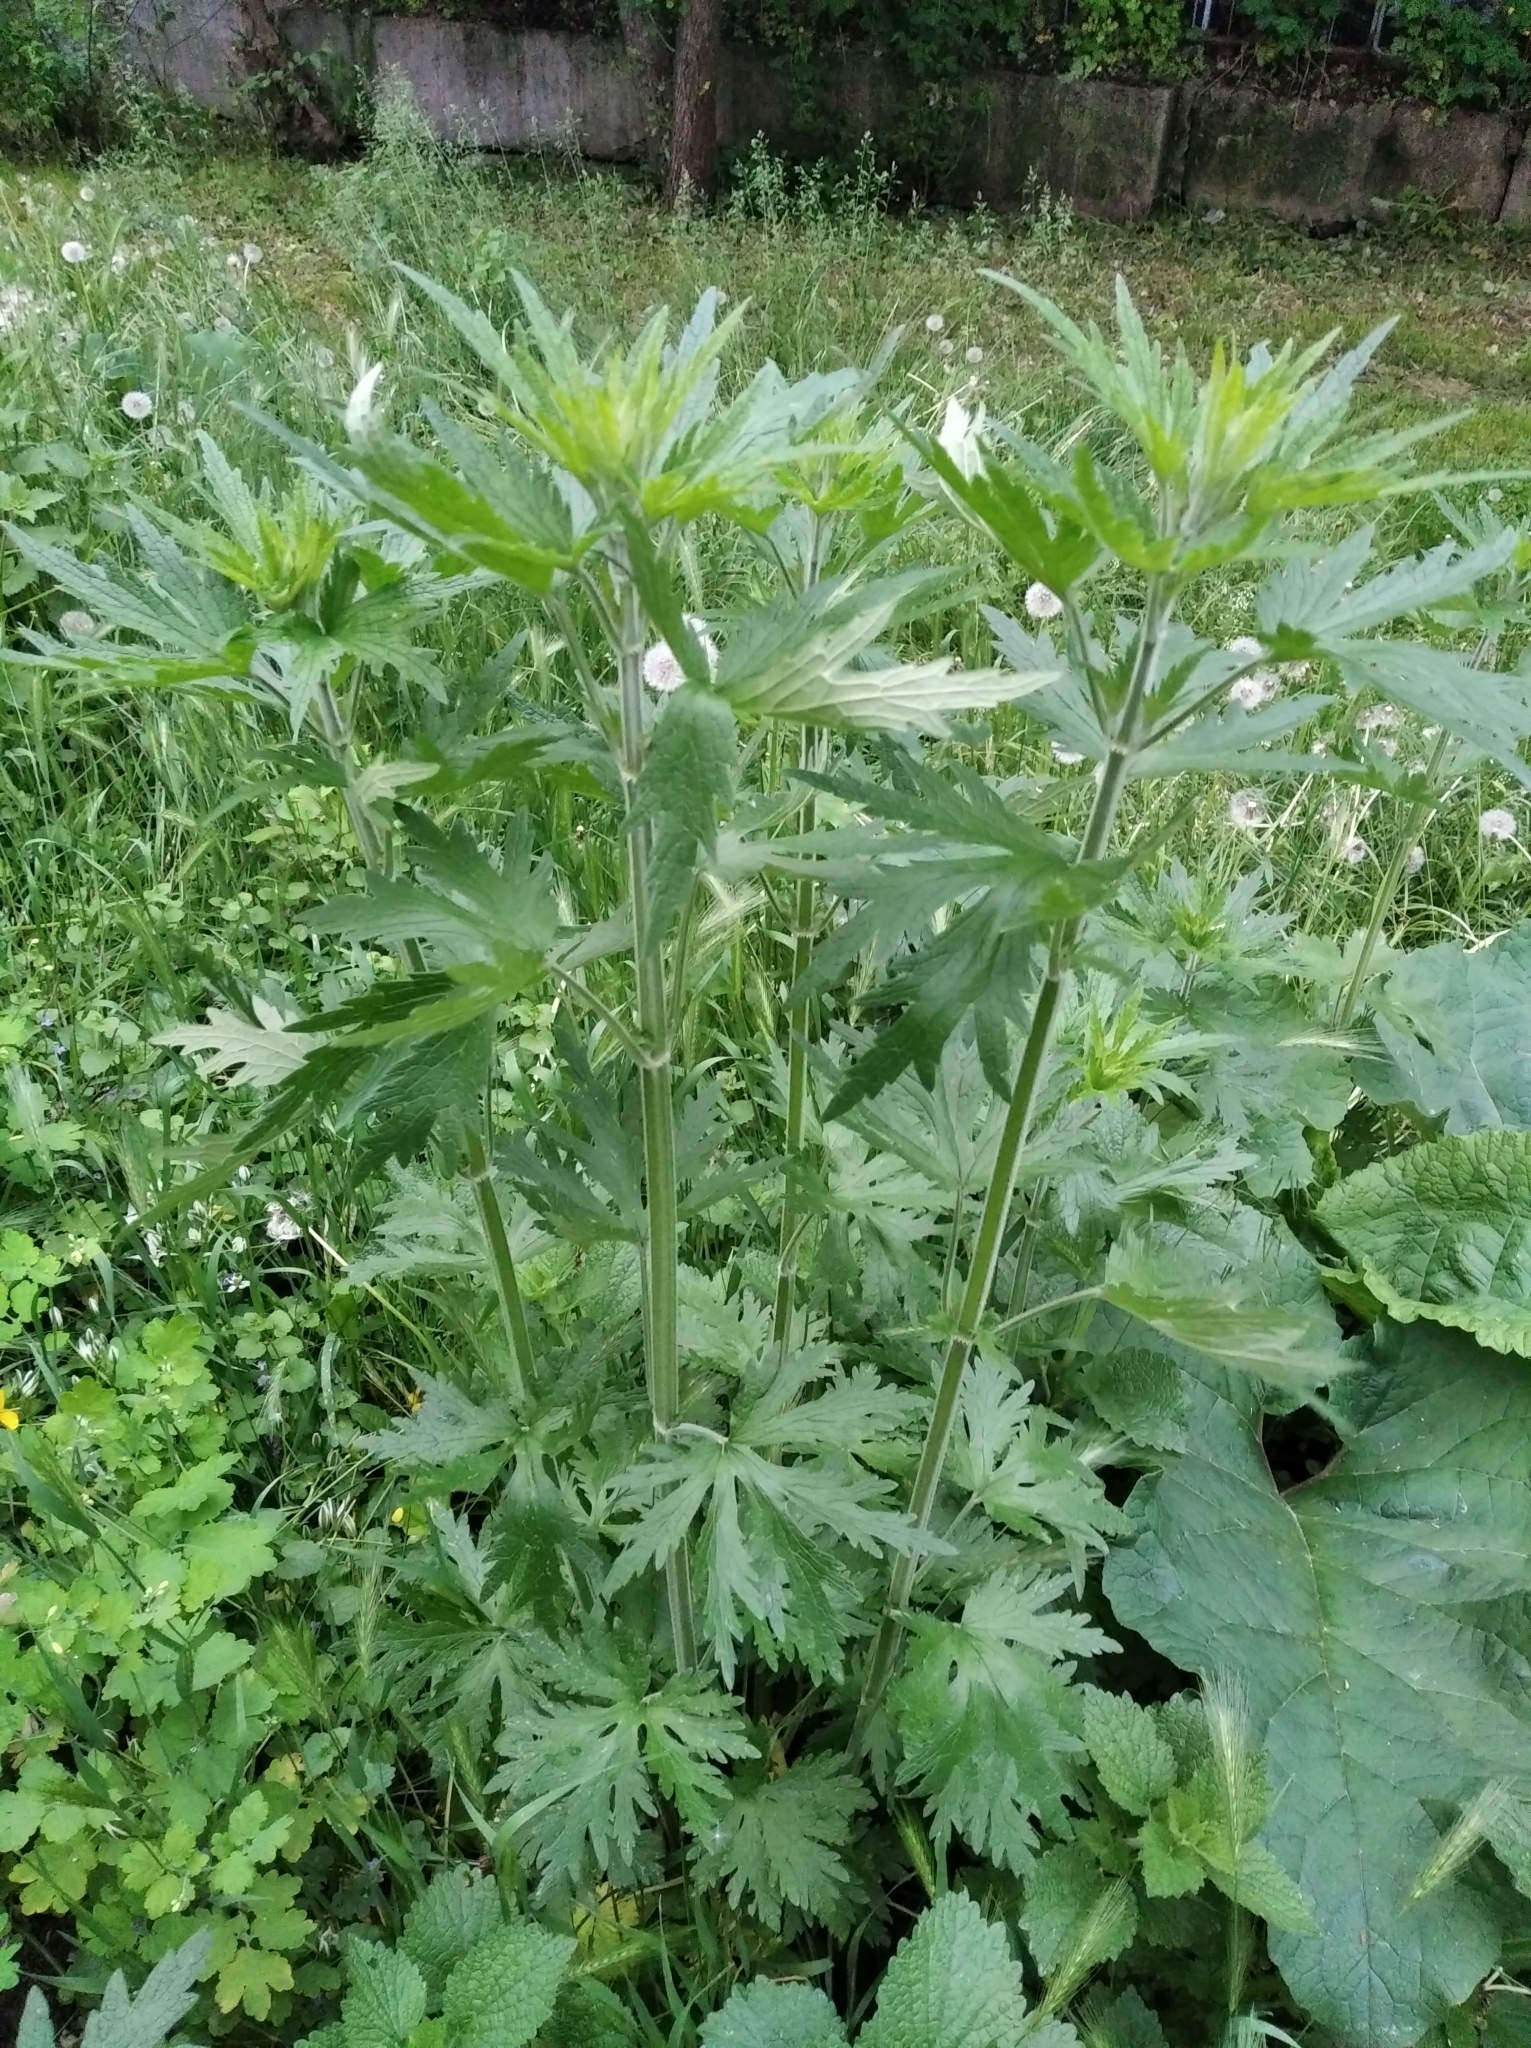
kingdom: Plantae
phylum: Tracheophyta
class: Magnoliopsida
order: Lamiales
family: Lamiaceae
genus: Leonurus
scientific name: Leonurus quinquelobatus
